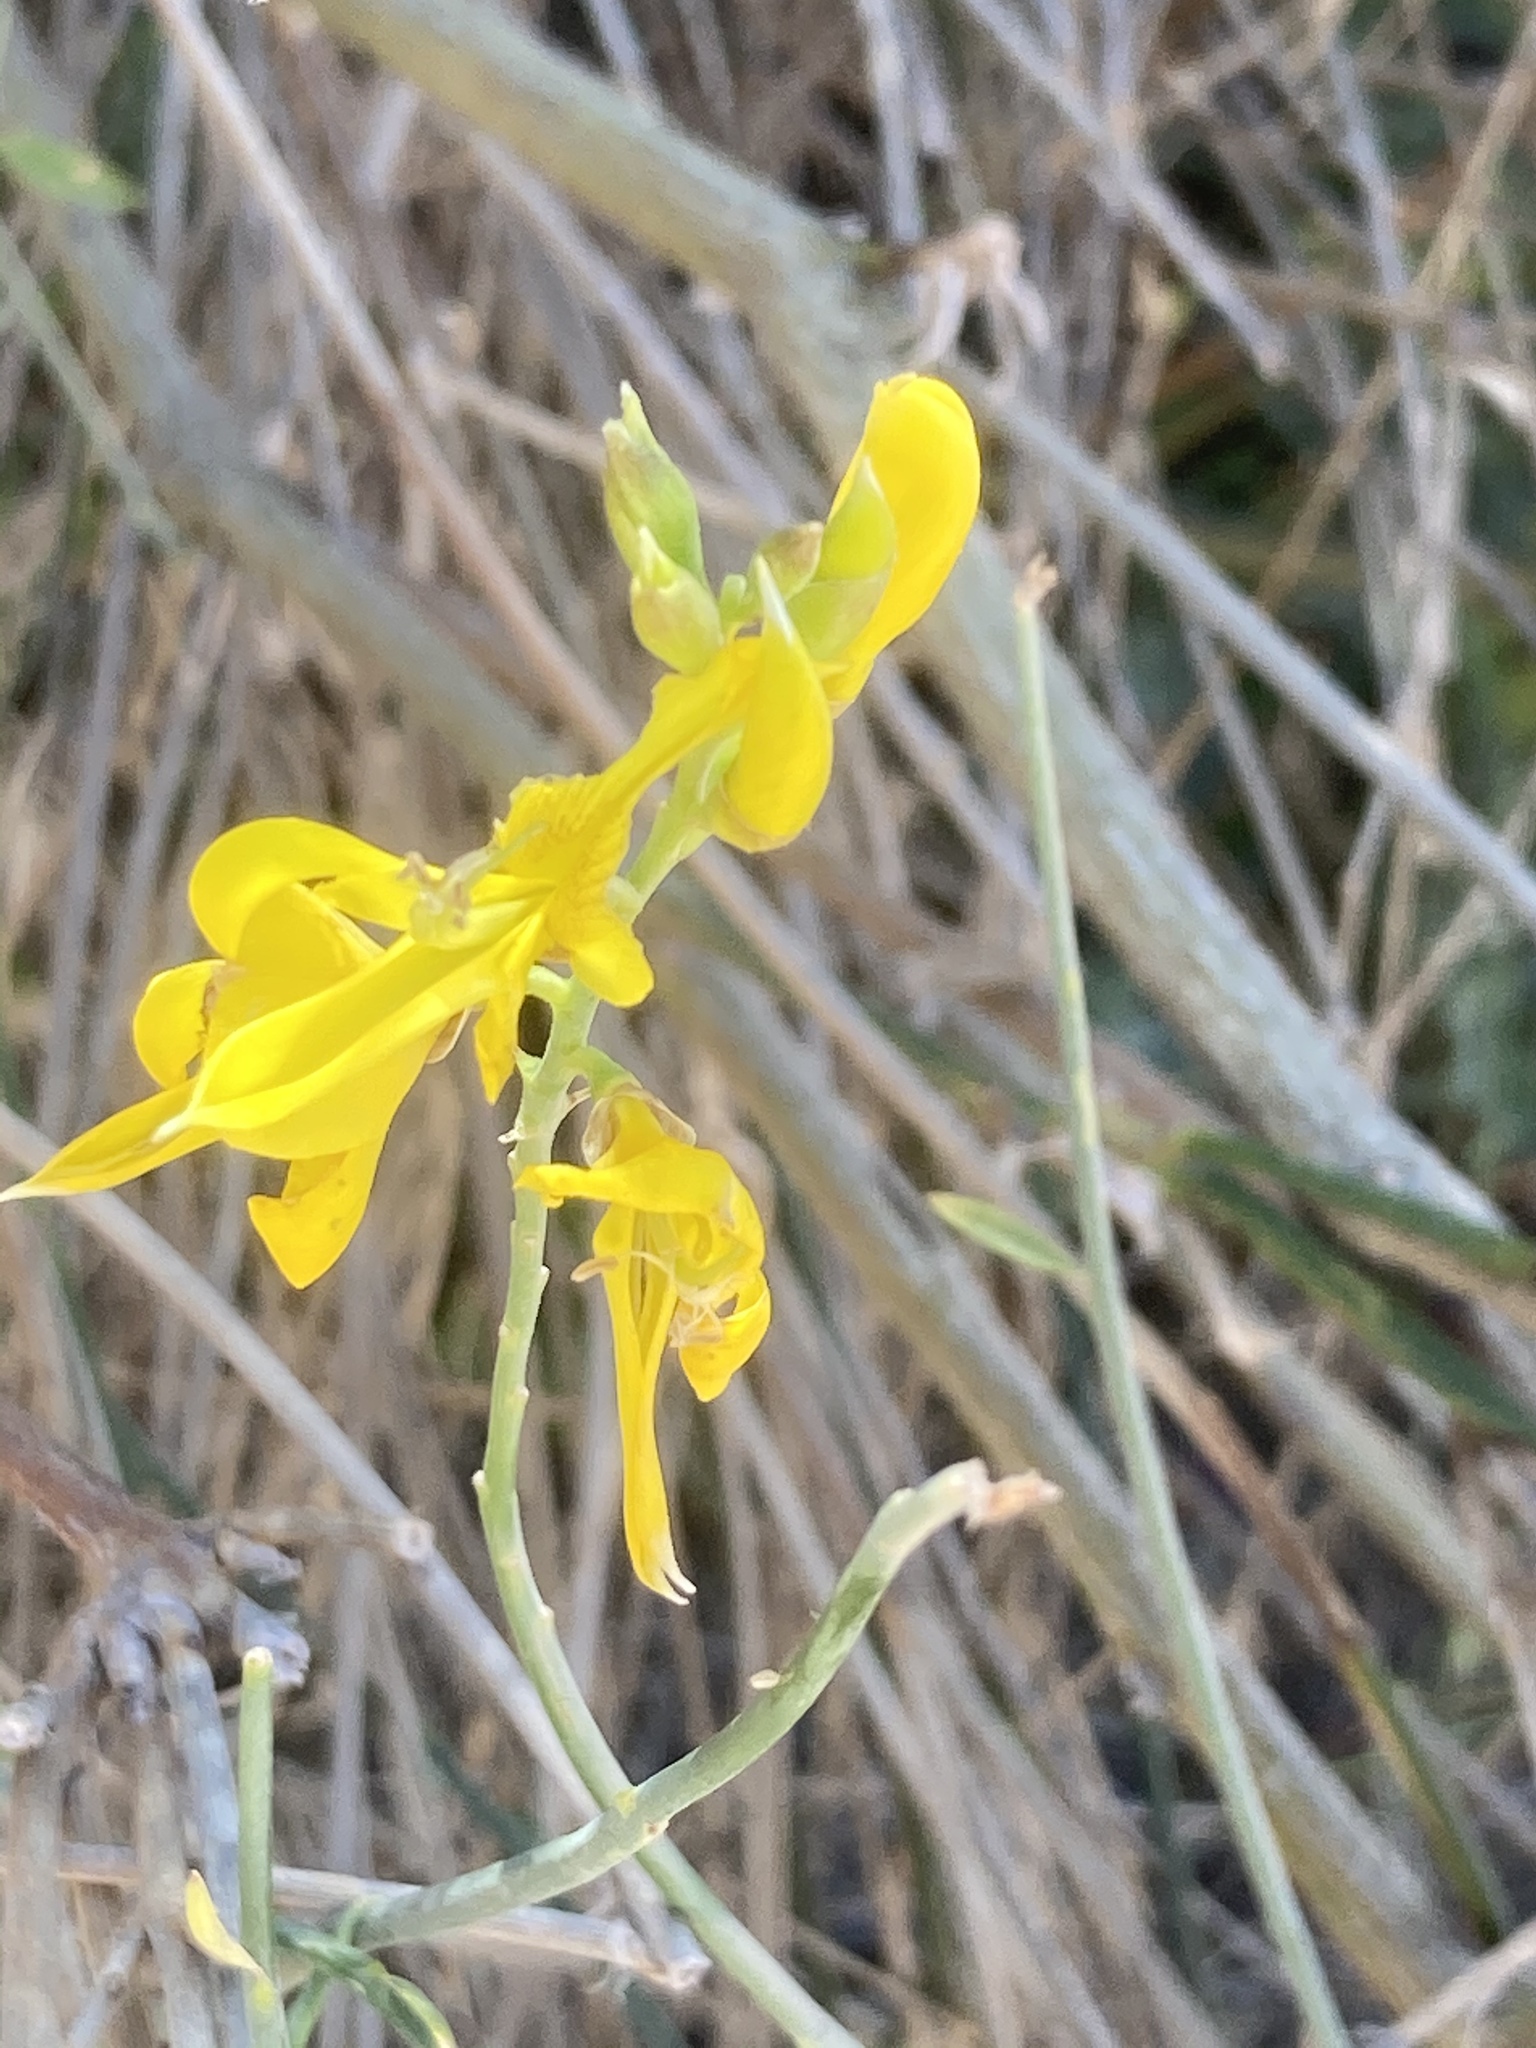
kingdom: Plantae
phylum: Tracheophyta
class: Magnoliopsida
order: Fabales
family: Fabaceae
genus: Spartium
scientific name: Spartium junceum
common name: Spanish broom
